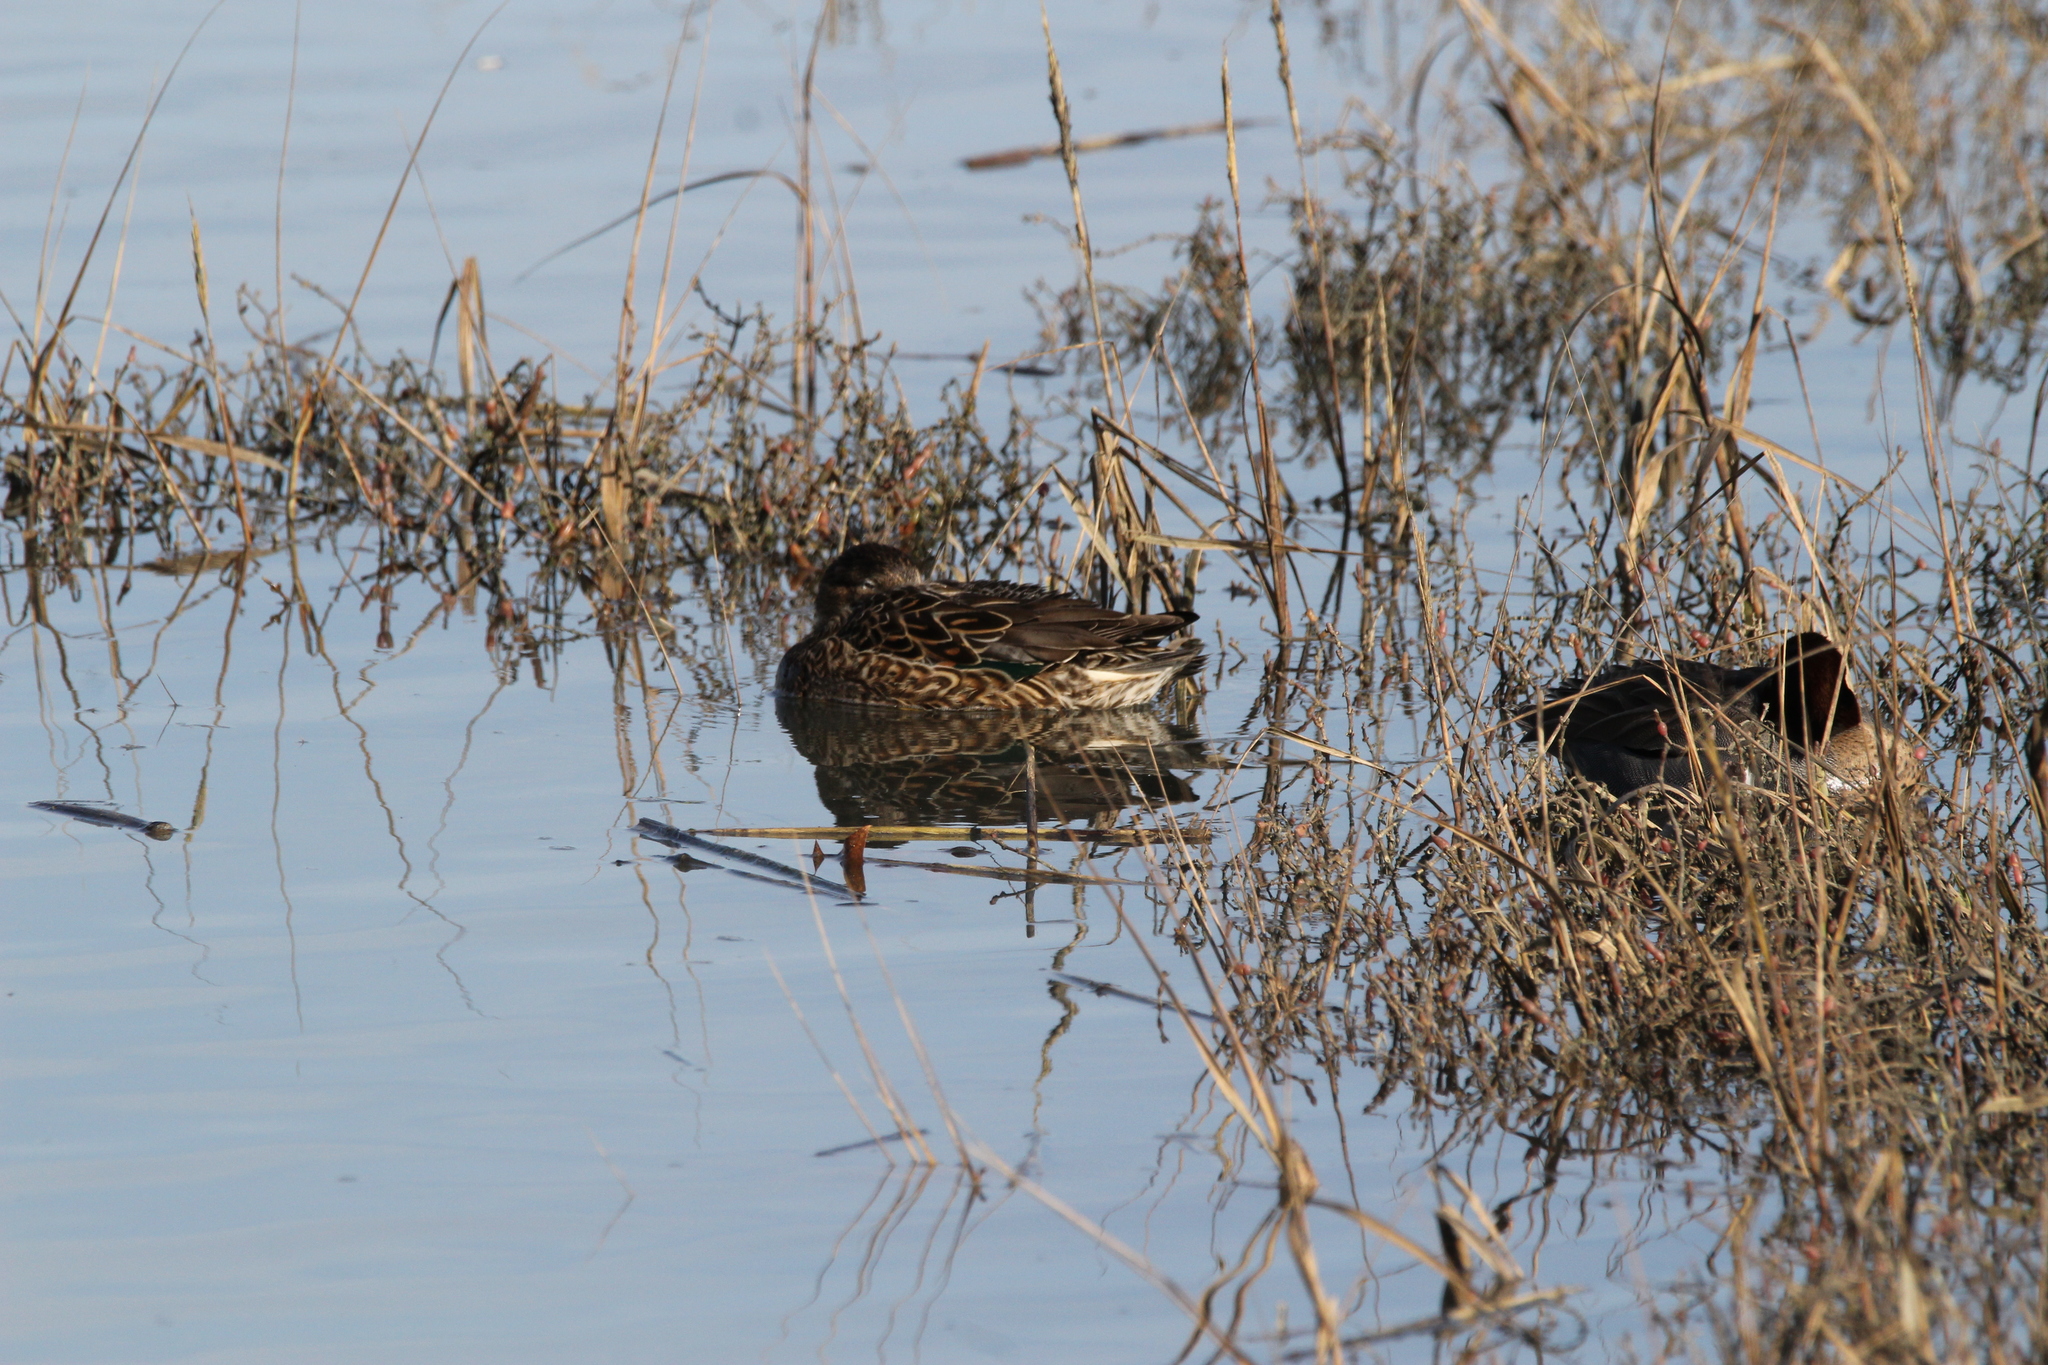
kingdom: Animalia
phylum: Chordata
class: Aves
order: Anseriformes
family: Anatidae
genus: Anas
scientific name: Anas crecca
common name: Eurasian teal
